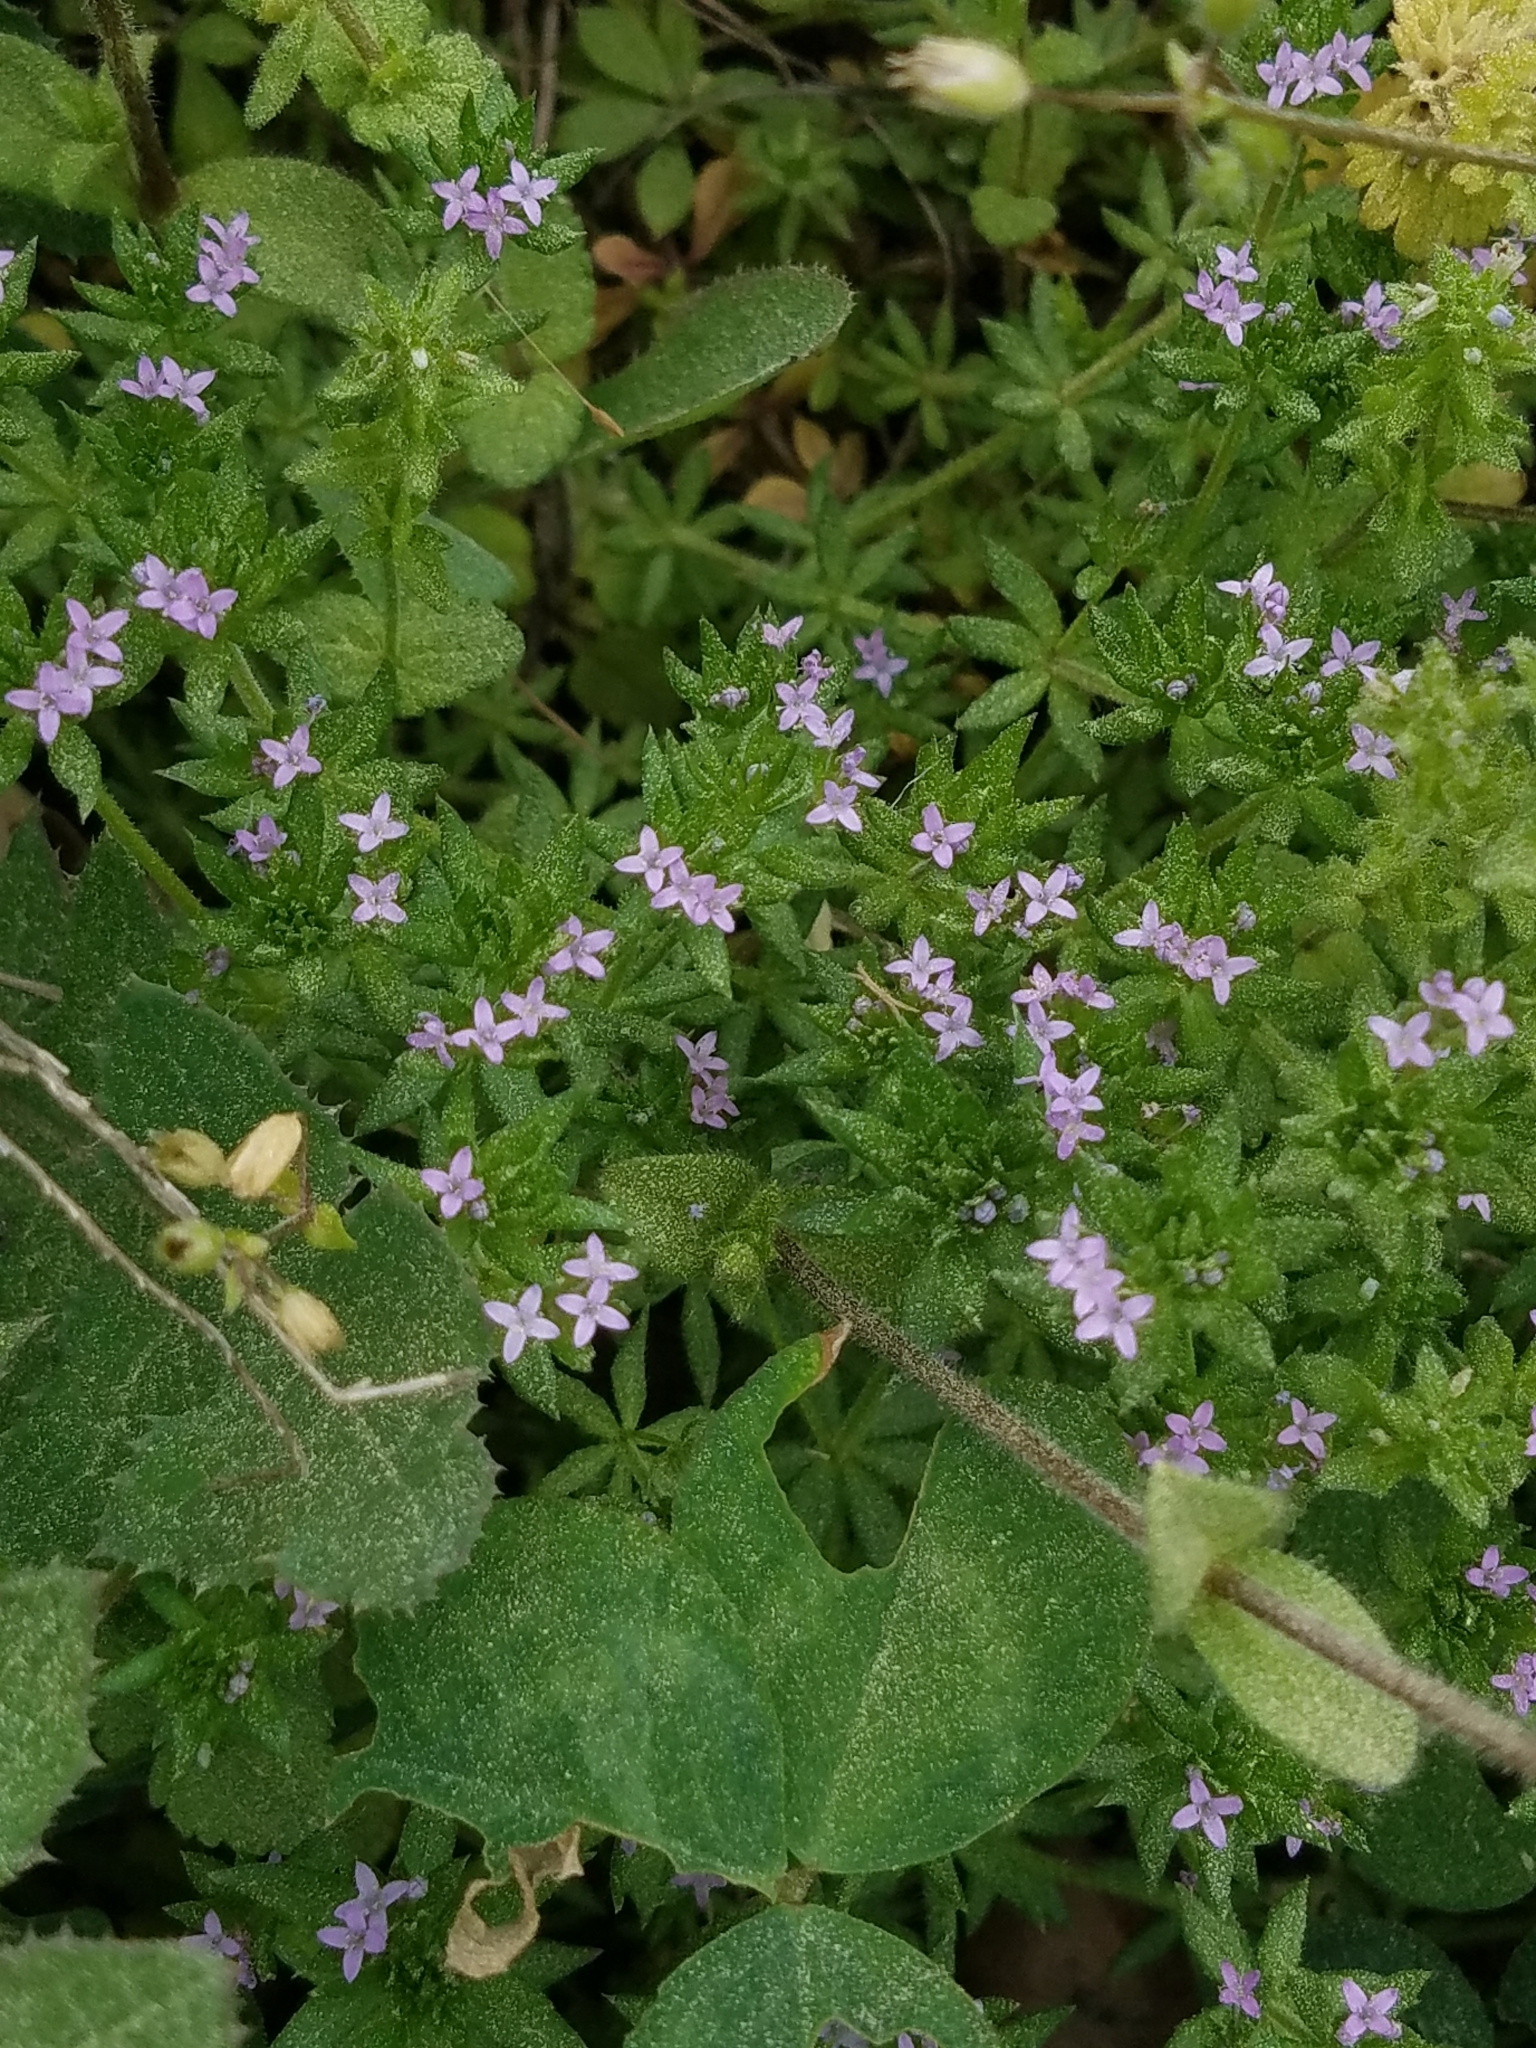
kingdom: Plantae
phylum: Tracheophyta
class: Magnoliopsida
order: Gentianales
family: Rubiaceae
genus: Sherardia
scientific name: Sherardia arvensis
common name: Field madder
